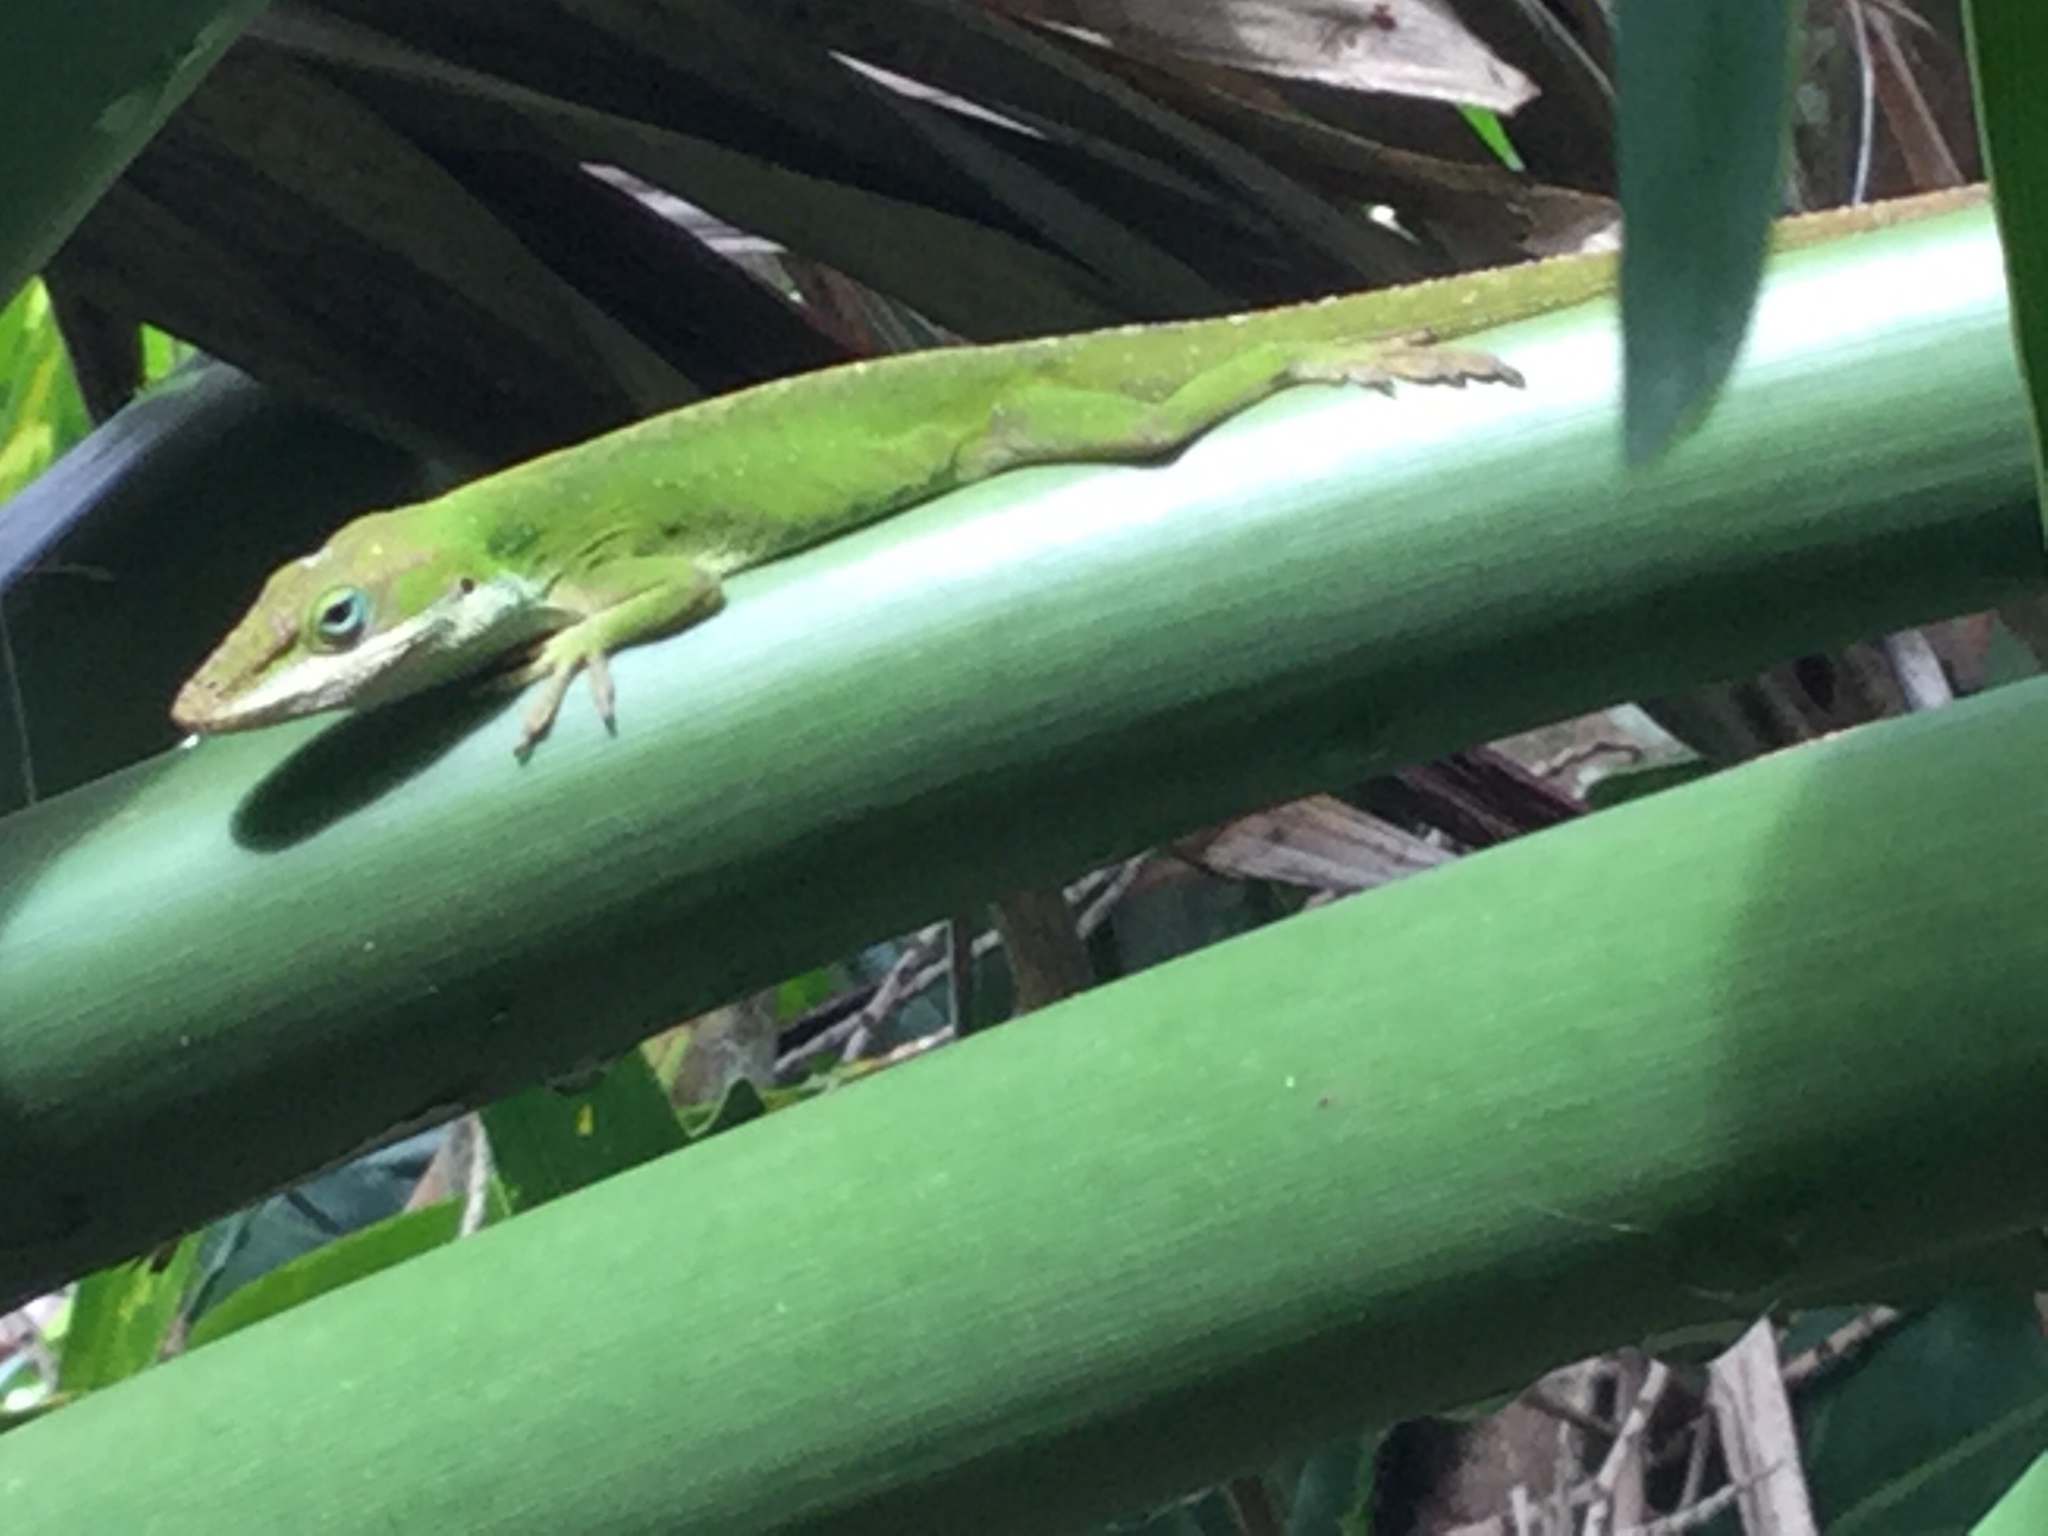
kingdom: Animalia
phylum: Chordata
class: Squamata
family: Dactyloidae
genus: Anolis
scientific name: Anolis carolinensis
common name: Green anole
